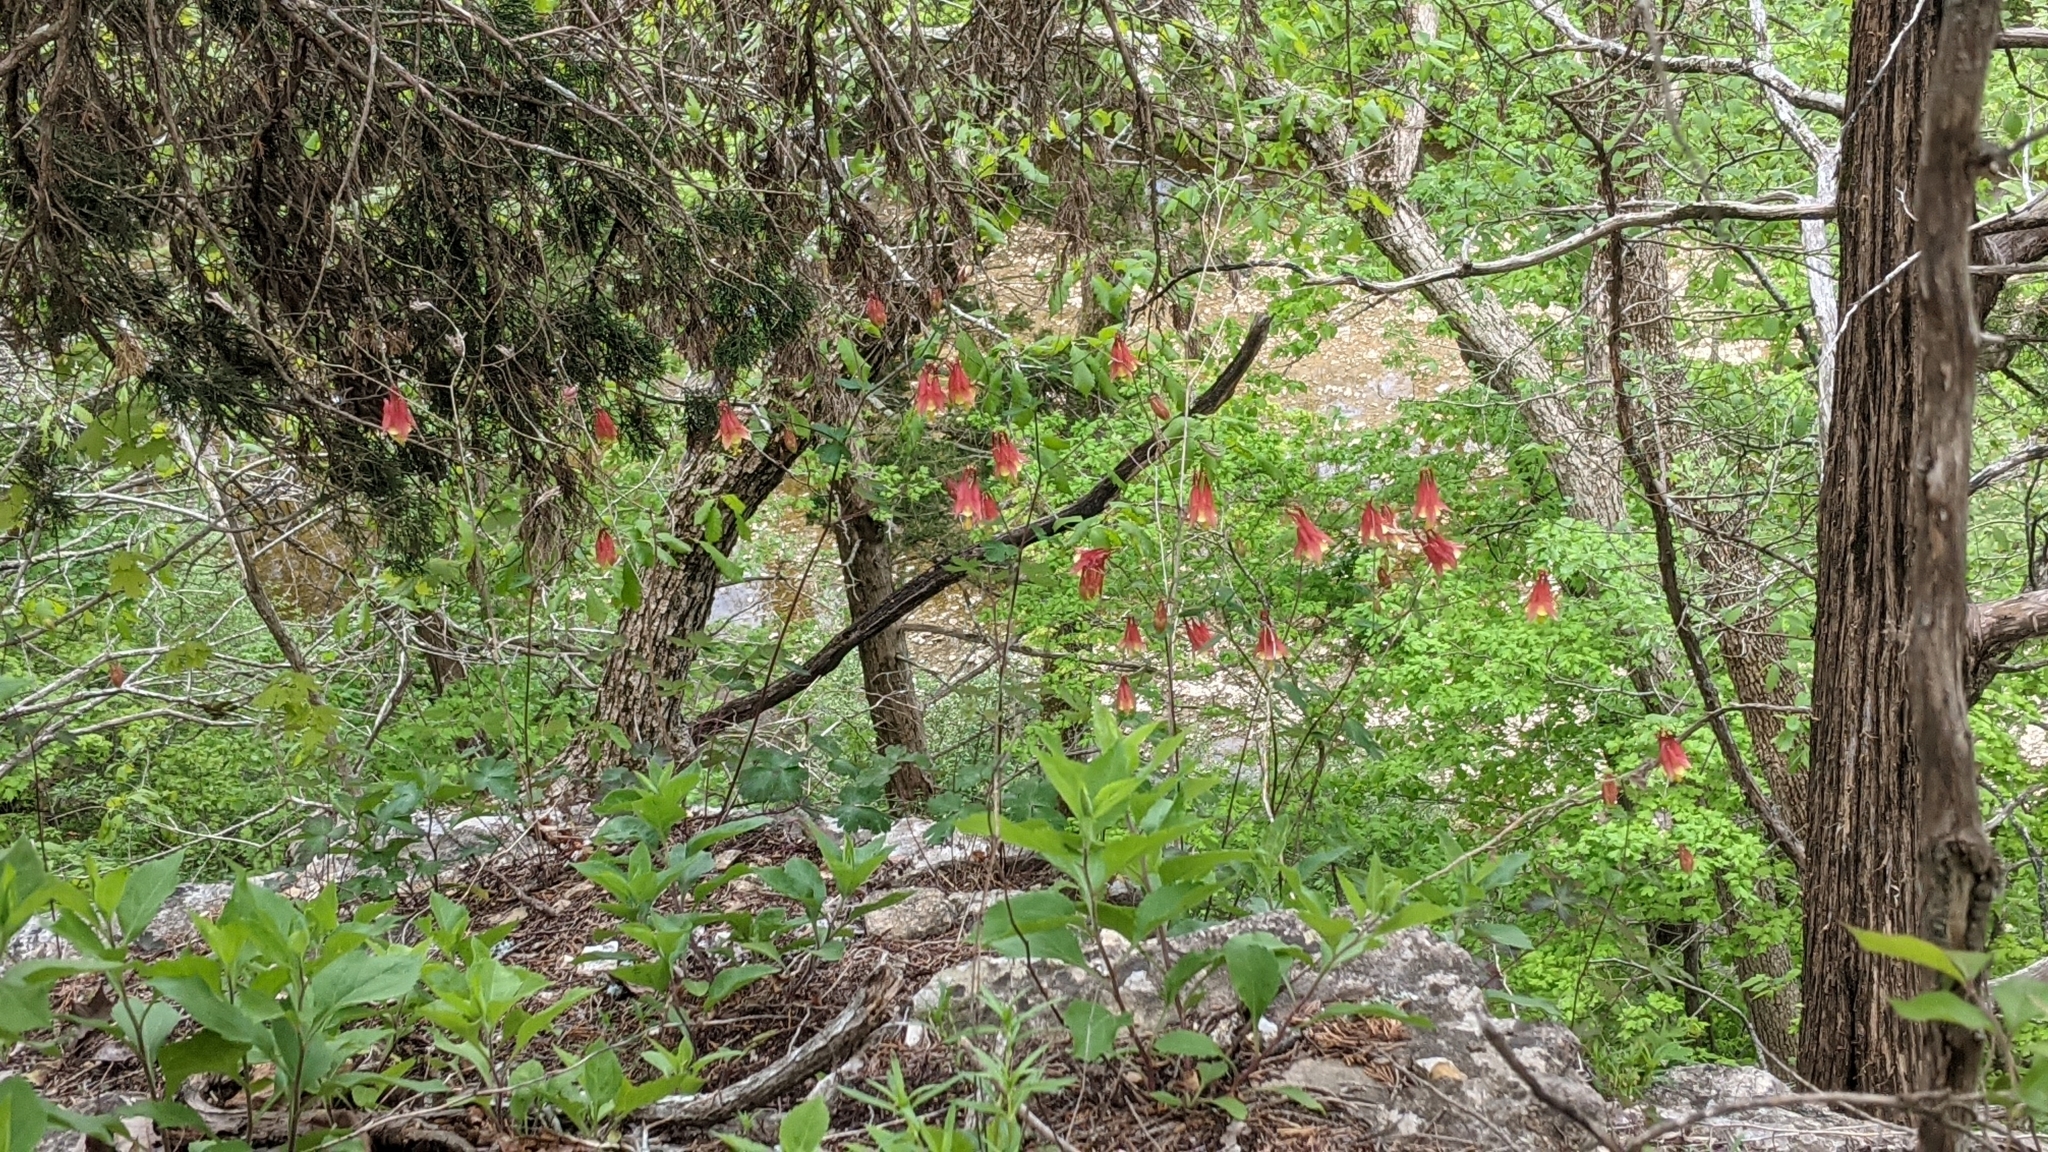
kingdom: Plantae
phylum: Tracheophyta
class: Magnoliopsida
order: Ranunculales
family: Ranunculaceae
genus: Aquilegia
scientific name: Aquilegia canadensis
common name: American columbine
